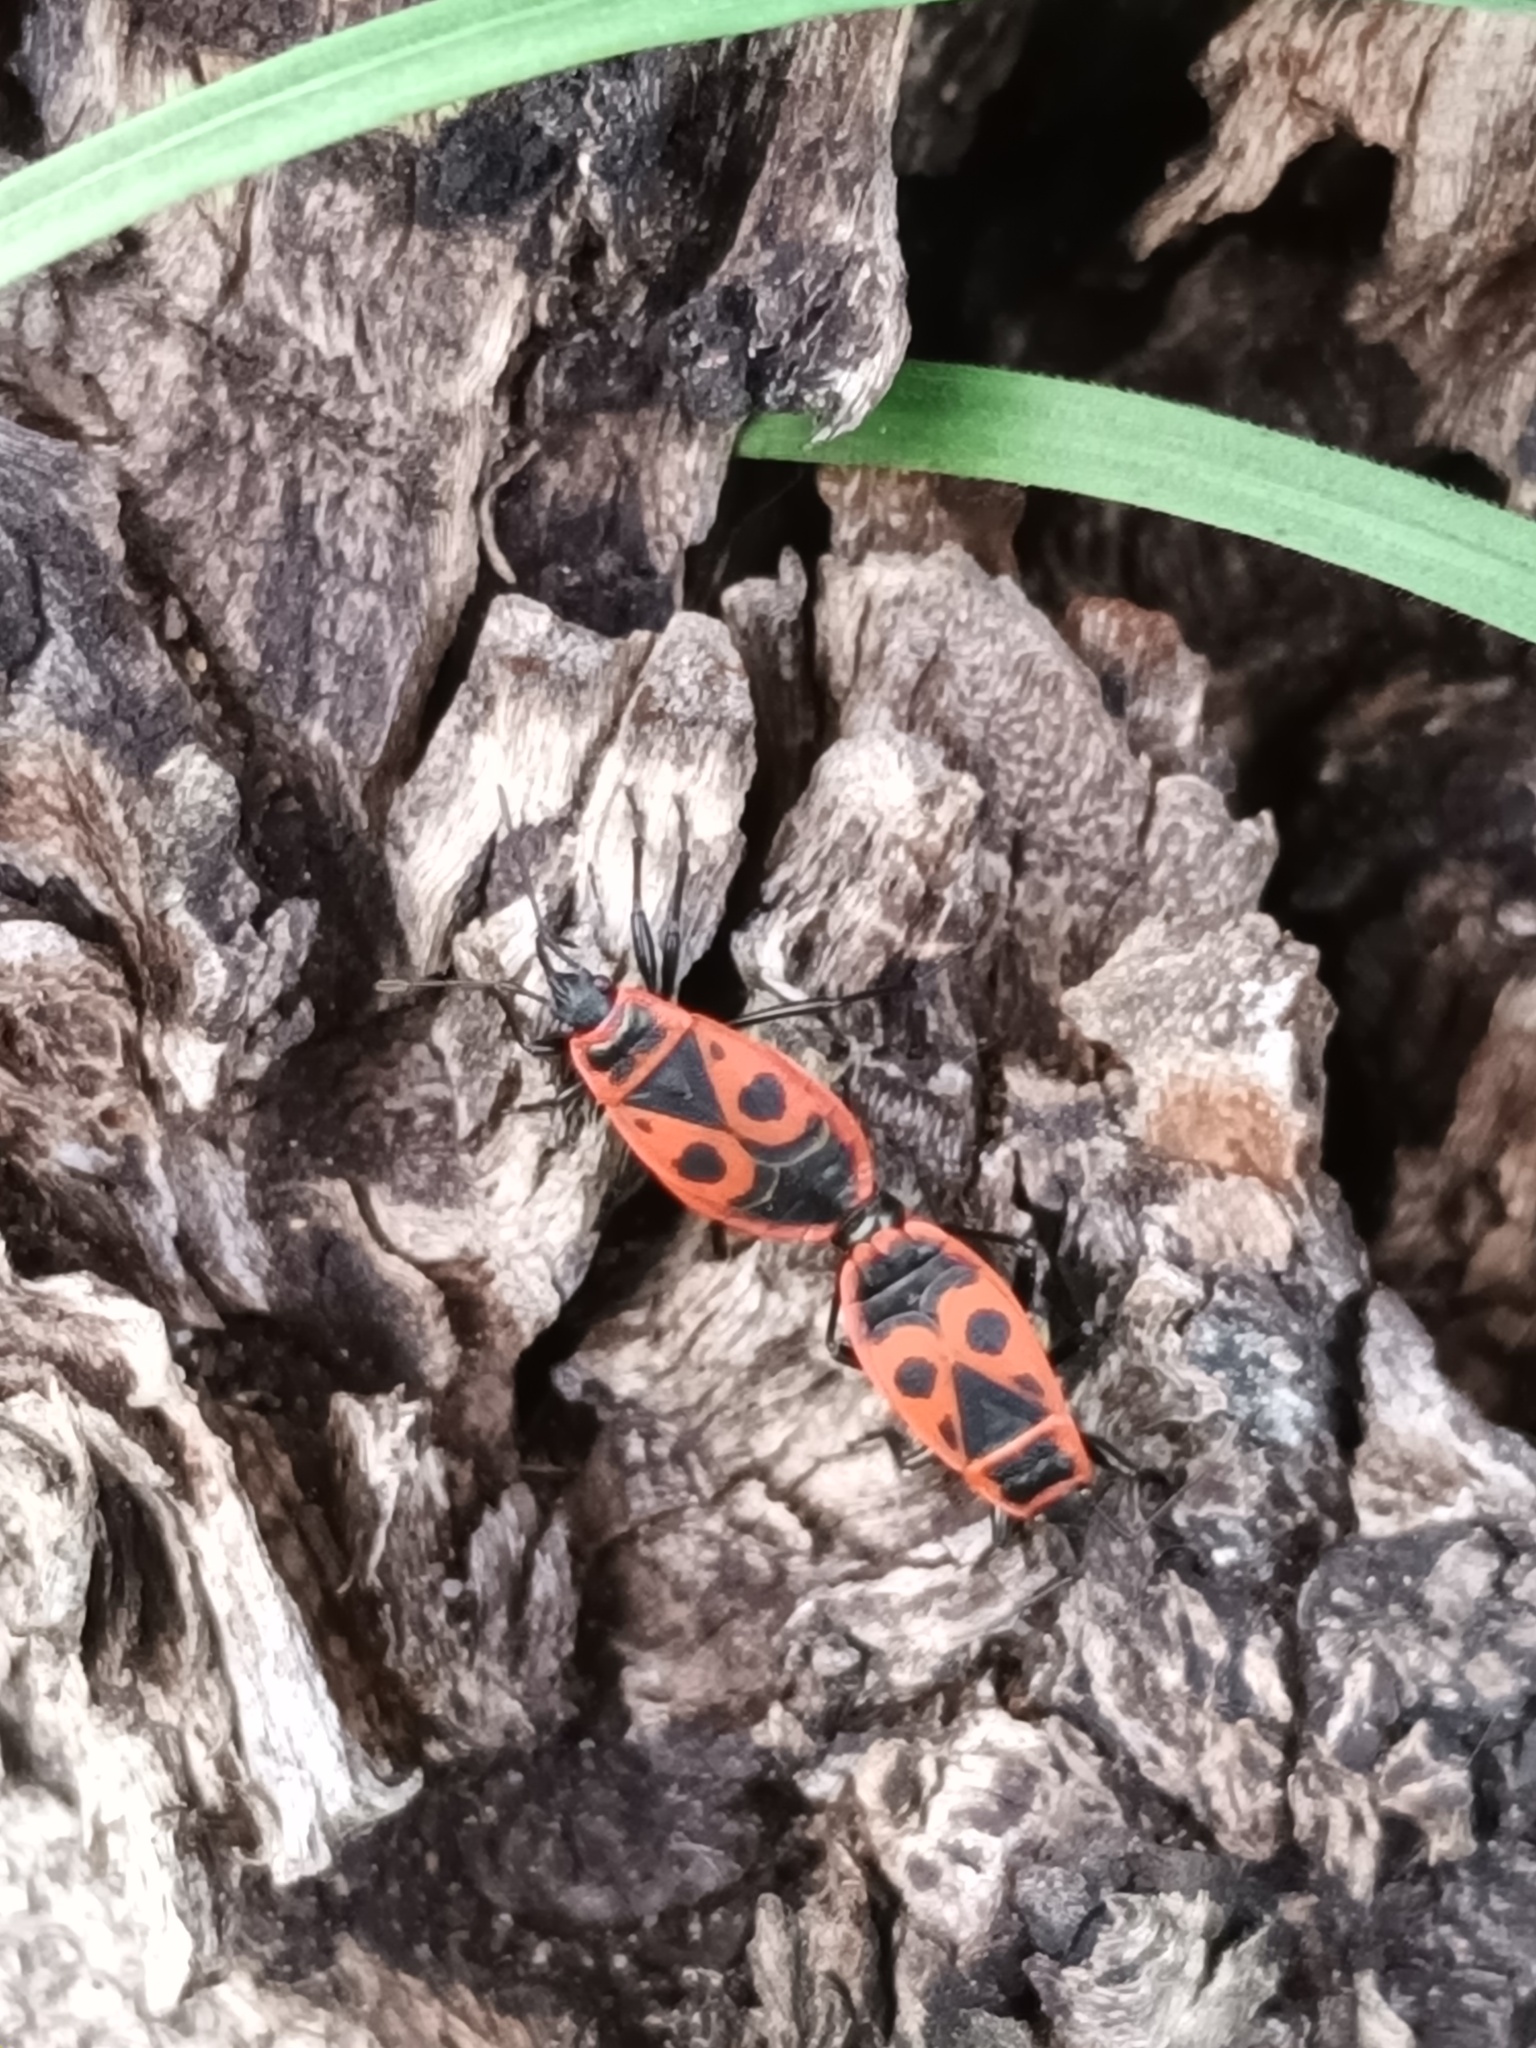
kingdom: Animalia
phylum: Arthropoda
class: Insecta
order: Hemiptera
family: Pyrrhocoridae
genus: Pyrrhocoris
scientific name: Pyrrhocoris apterus
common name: Firebug
